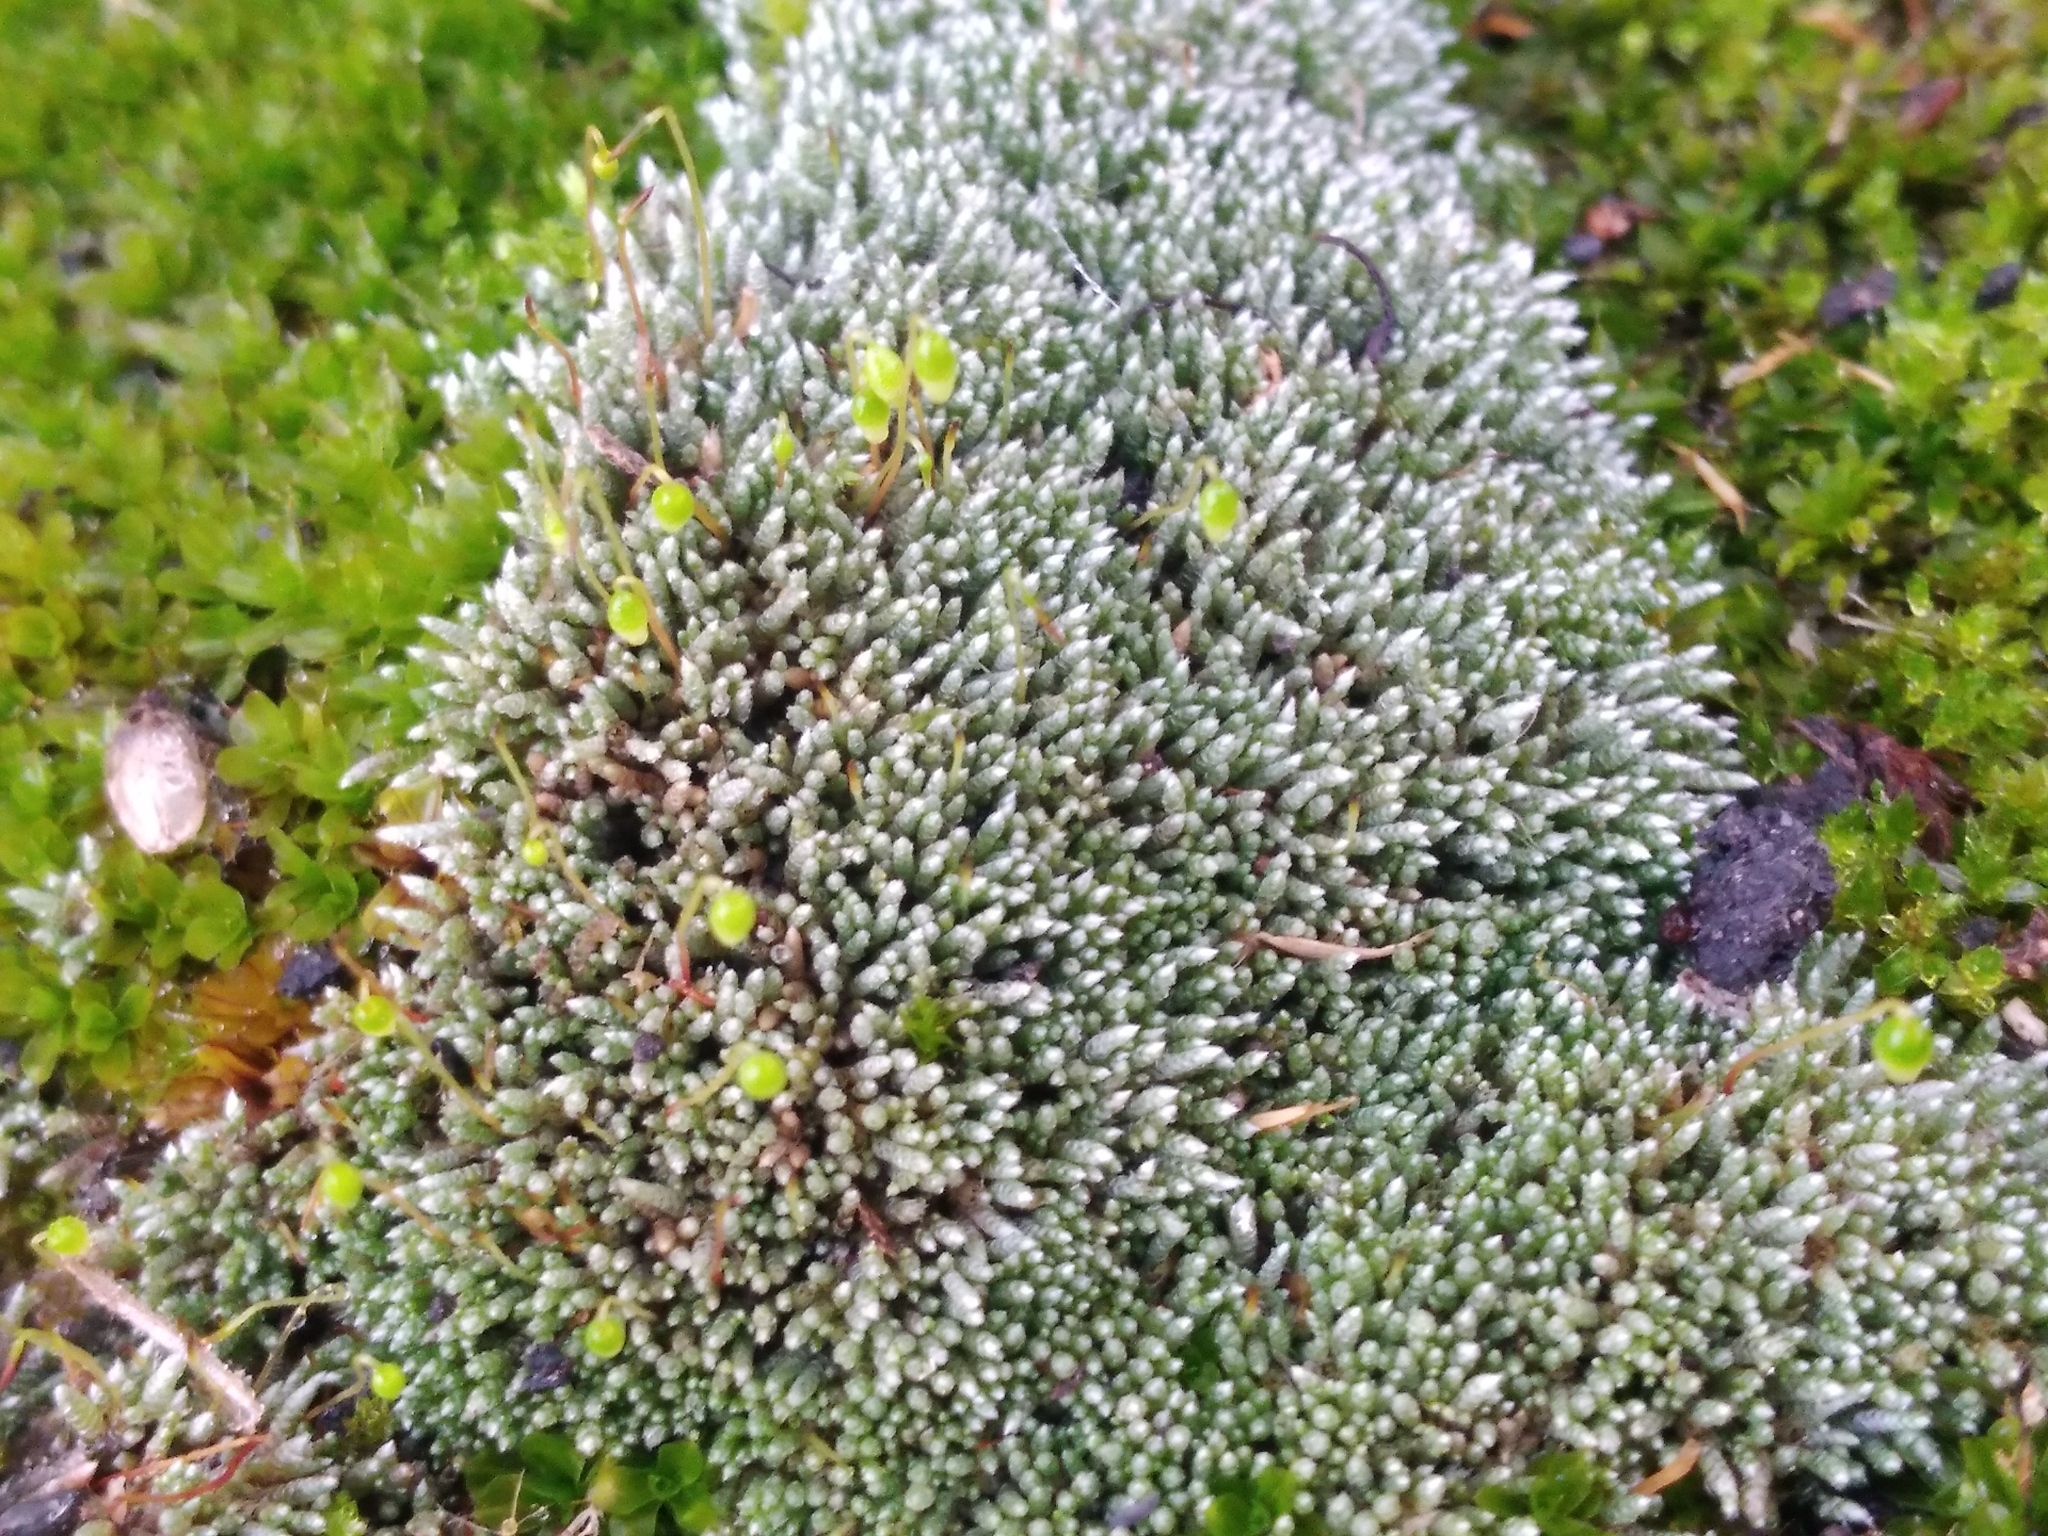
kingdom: Plantae
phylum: Bryophyta
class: Bryopsida
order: Bryales
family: Bryaceae
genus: Bryum
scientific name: Bryum argenteum
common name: Silver-moss
